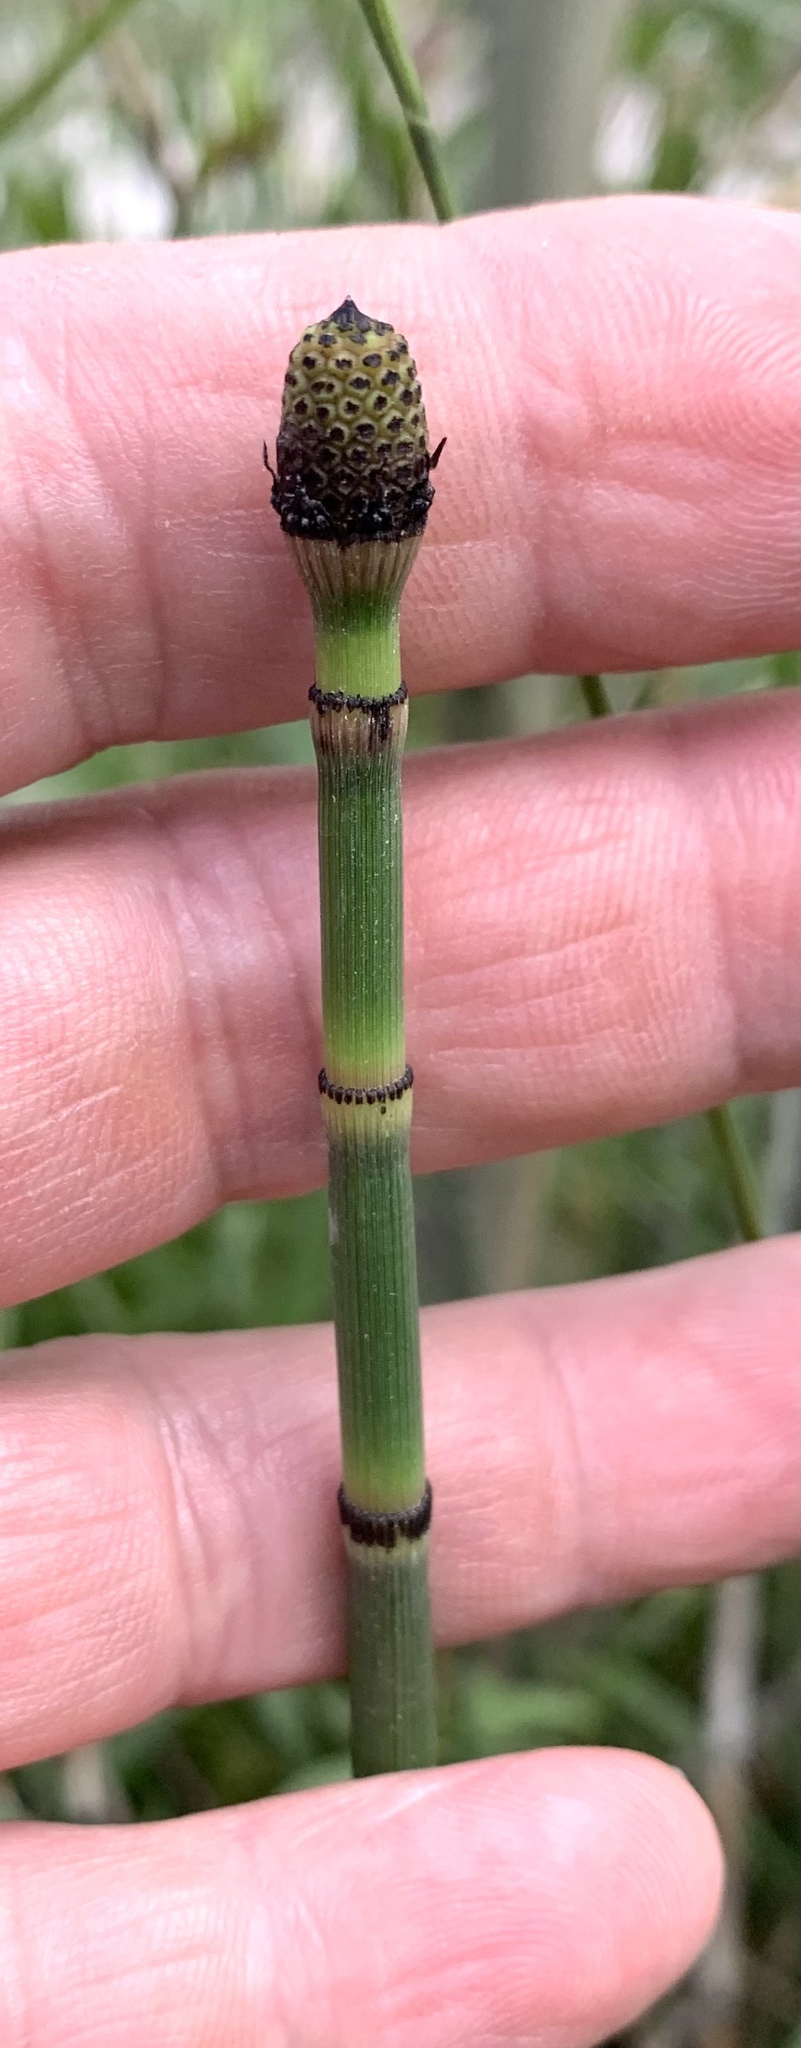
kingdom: Plantae
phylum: Tracheophyta
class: Polypodiopsida
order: Equisetales
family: Equisetaceae
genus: Equisetum
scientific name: Equisetum laevigatum
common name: Smooth scouring-rush
